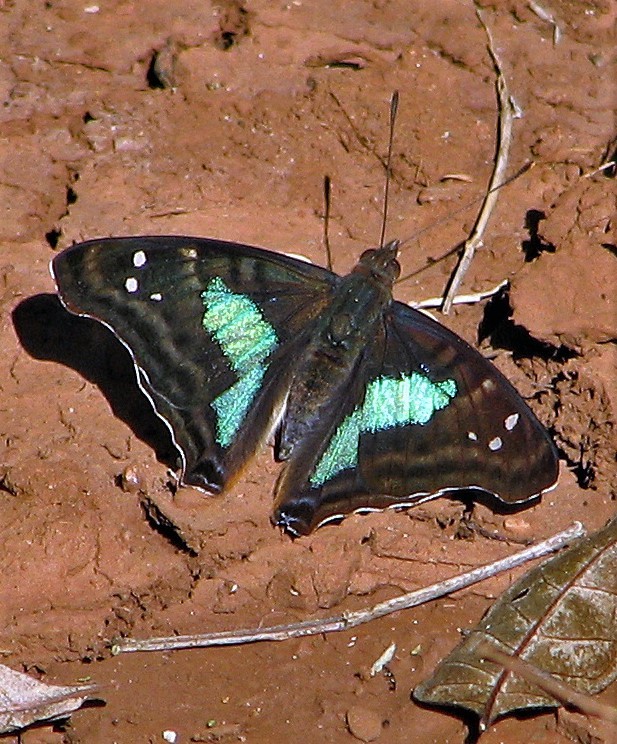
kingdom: Animalia
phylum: Arthropoda
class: Insecta
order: Lepidoptera
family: Nymphalidae
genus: Doxocopa
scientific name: Doxocopa laurentia
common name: Turquoise emperor
